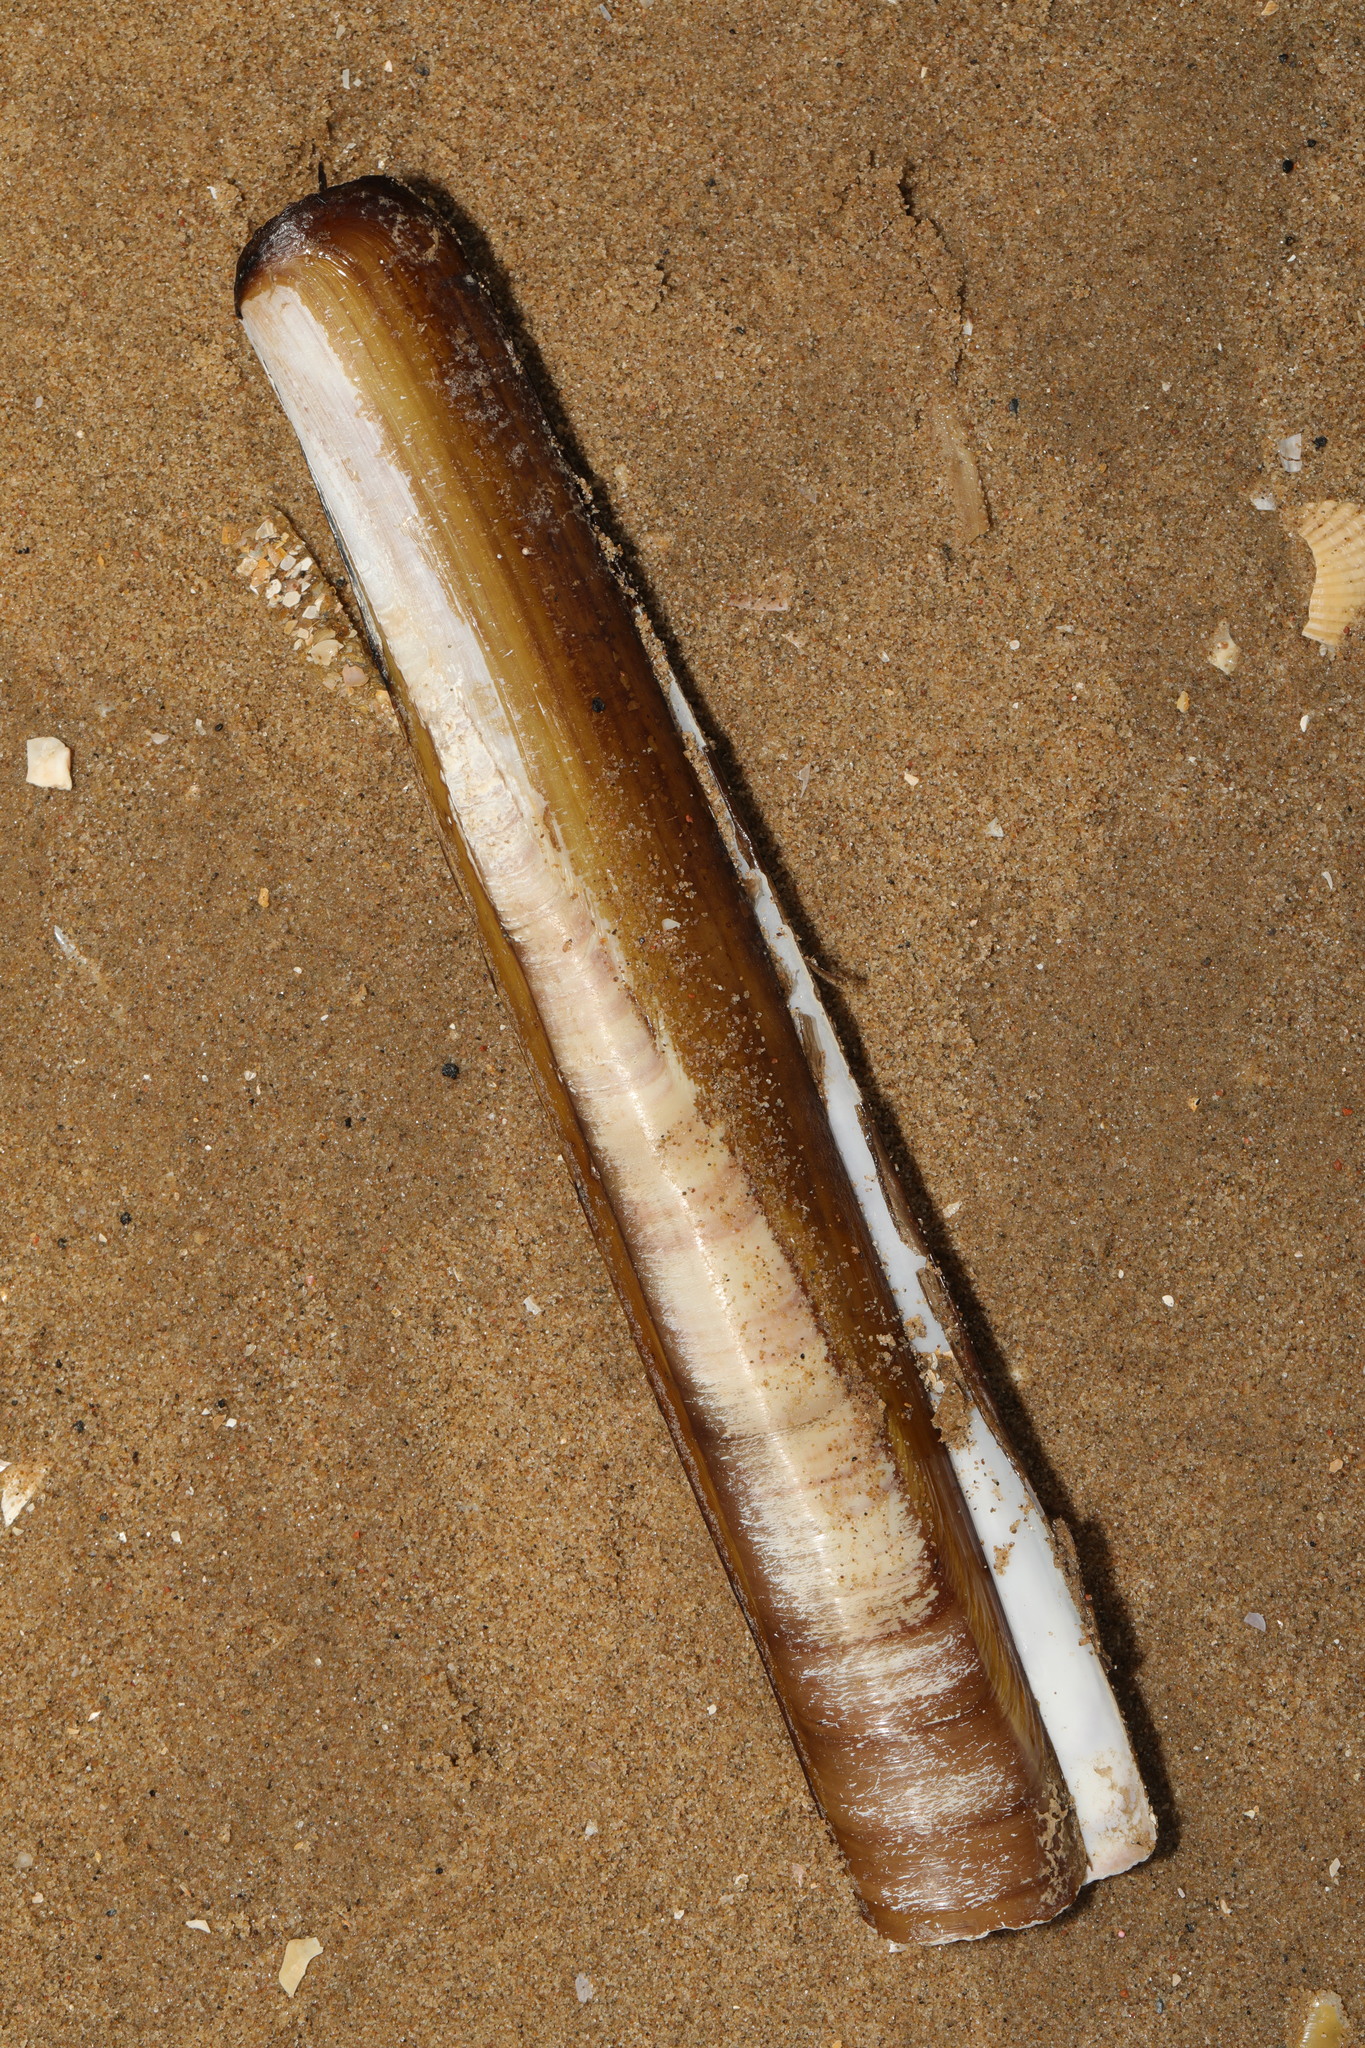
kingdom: Animalia
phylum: Mollusca
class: Bivalvia
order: Adapedonta
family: Pharidae
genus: Ensis
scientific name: Ensis siliqua
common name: Pod razor shell
